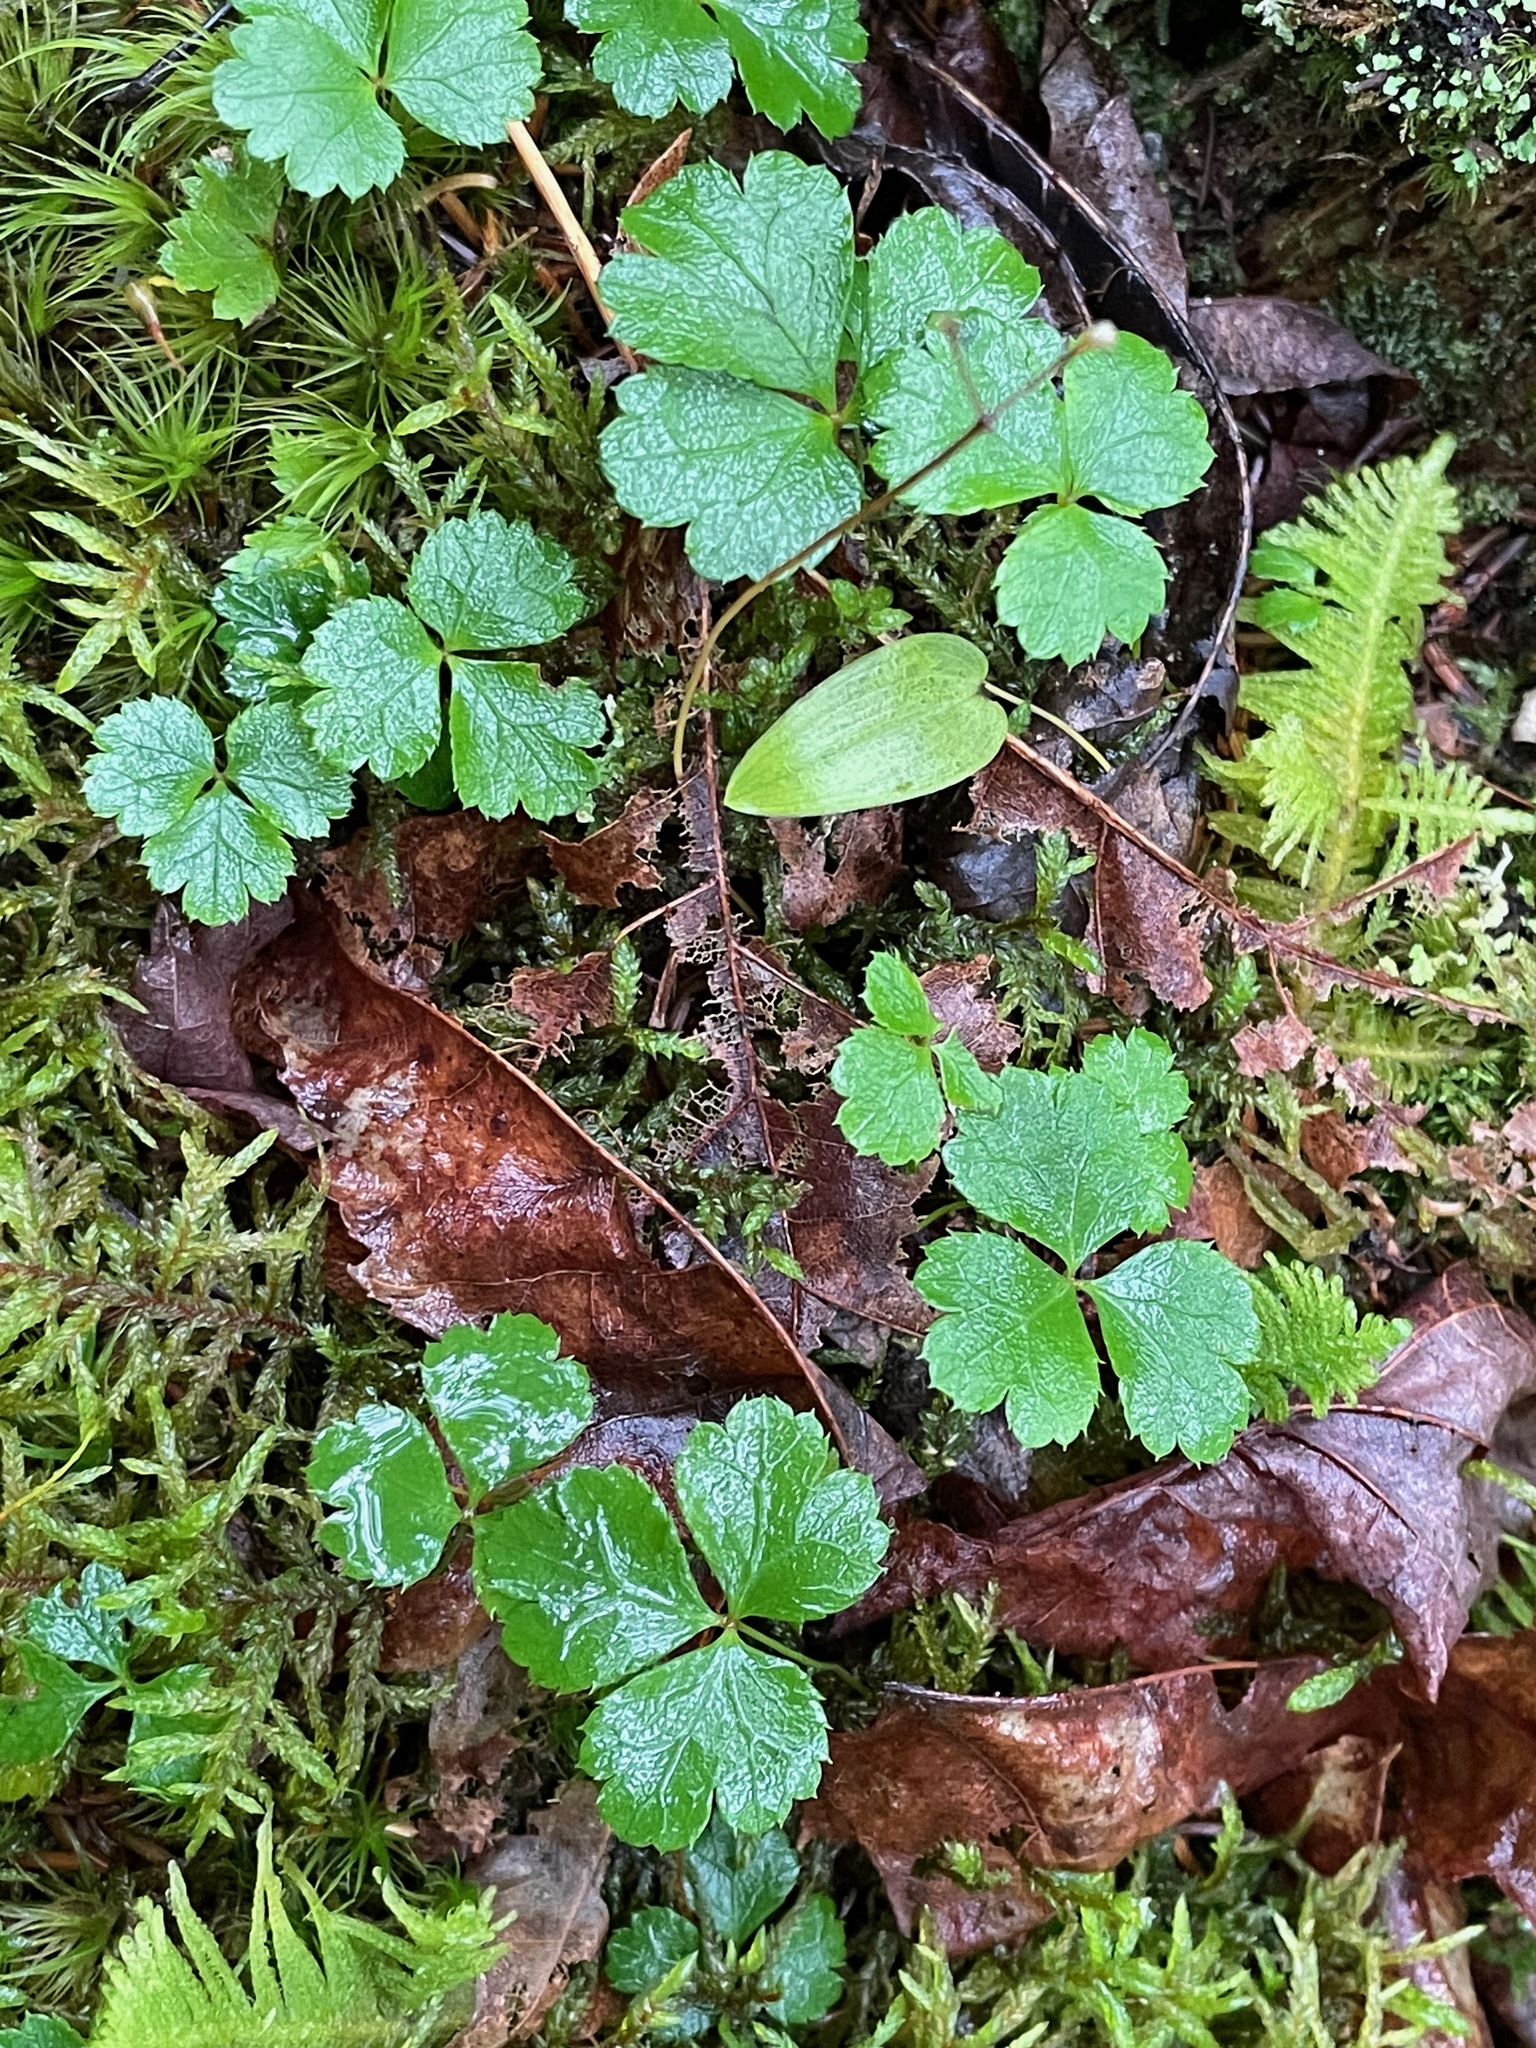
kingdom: Plantae
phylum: Tracheophyta
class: Magnoliopsida
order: Ranunculales
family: Ranunculaceae
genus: Coptis
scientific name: Coptis trifolia
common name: Canker-root
